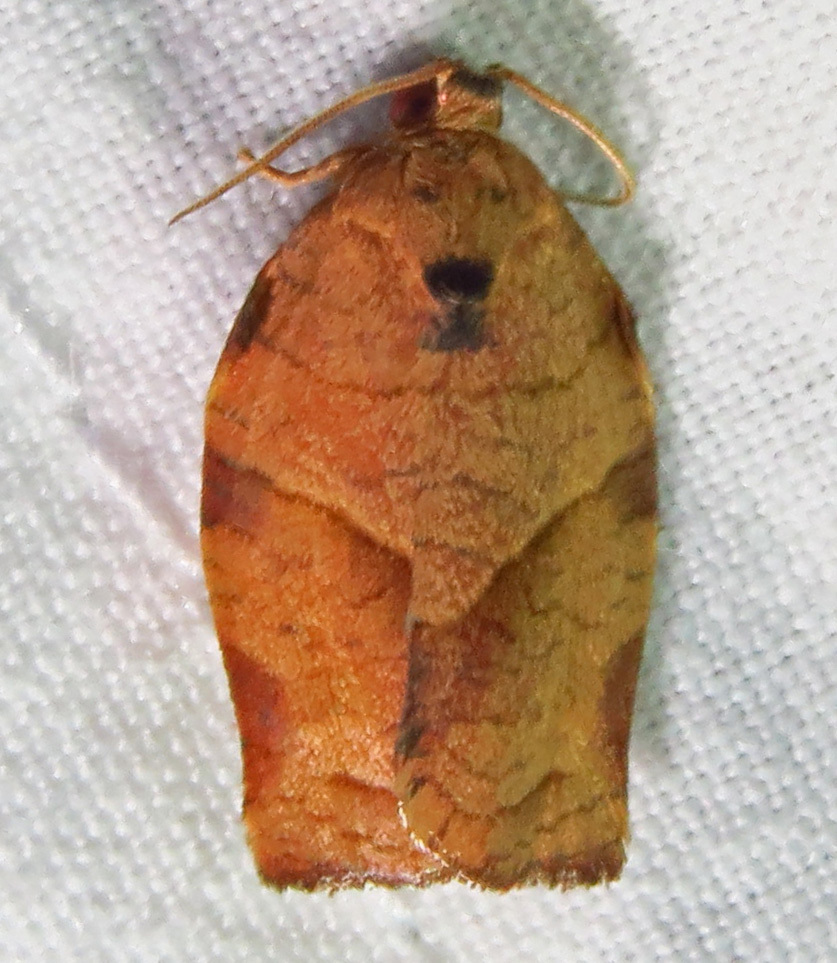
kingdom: Animalia
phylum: Arthropoda
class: Insecta
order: Lepidoptera
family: Tortricidae
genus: Choristoneura
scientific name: Choristoneura rosaceana
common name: Oblique-banded leafroller moth
